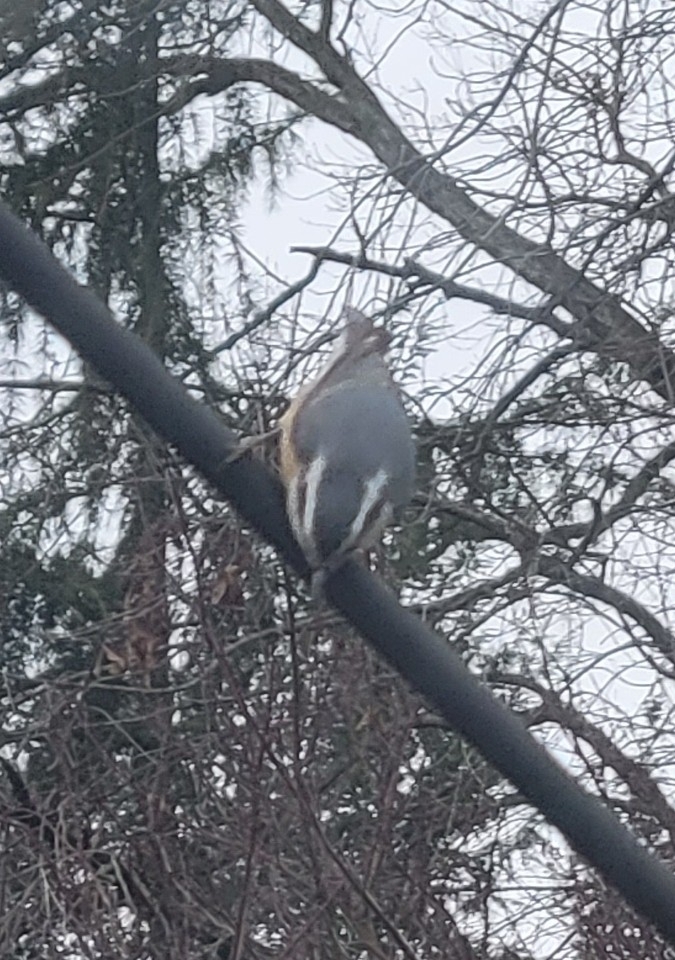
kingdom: Animalia
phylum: Chordata
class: Aves
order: Passeriformes
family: Sittidae
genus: Sitta
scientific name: Sitta canadensis
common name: Red-breasted nuthatch
